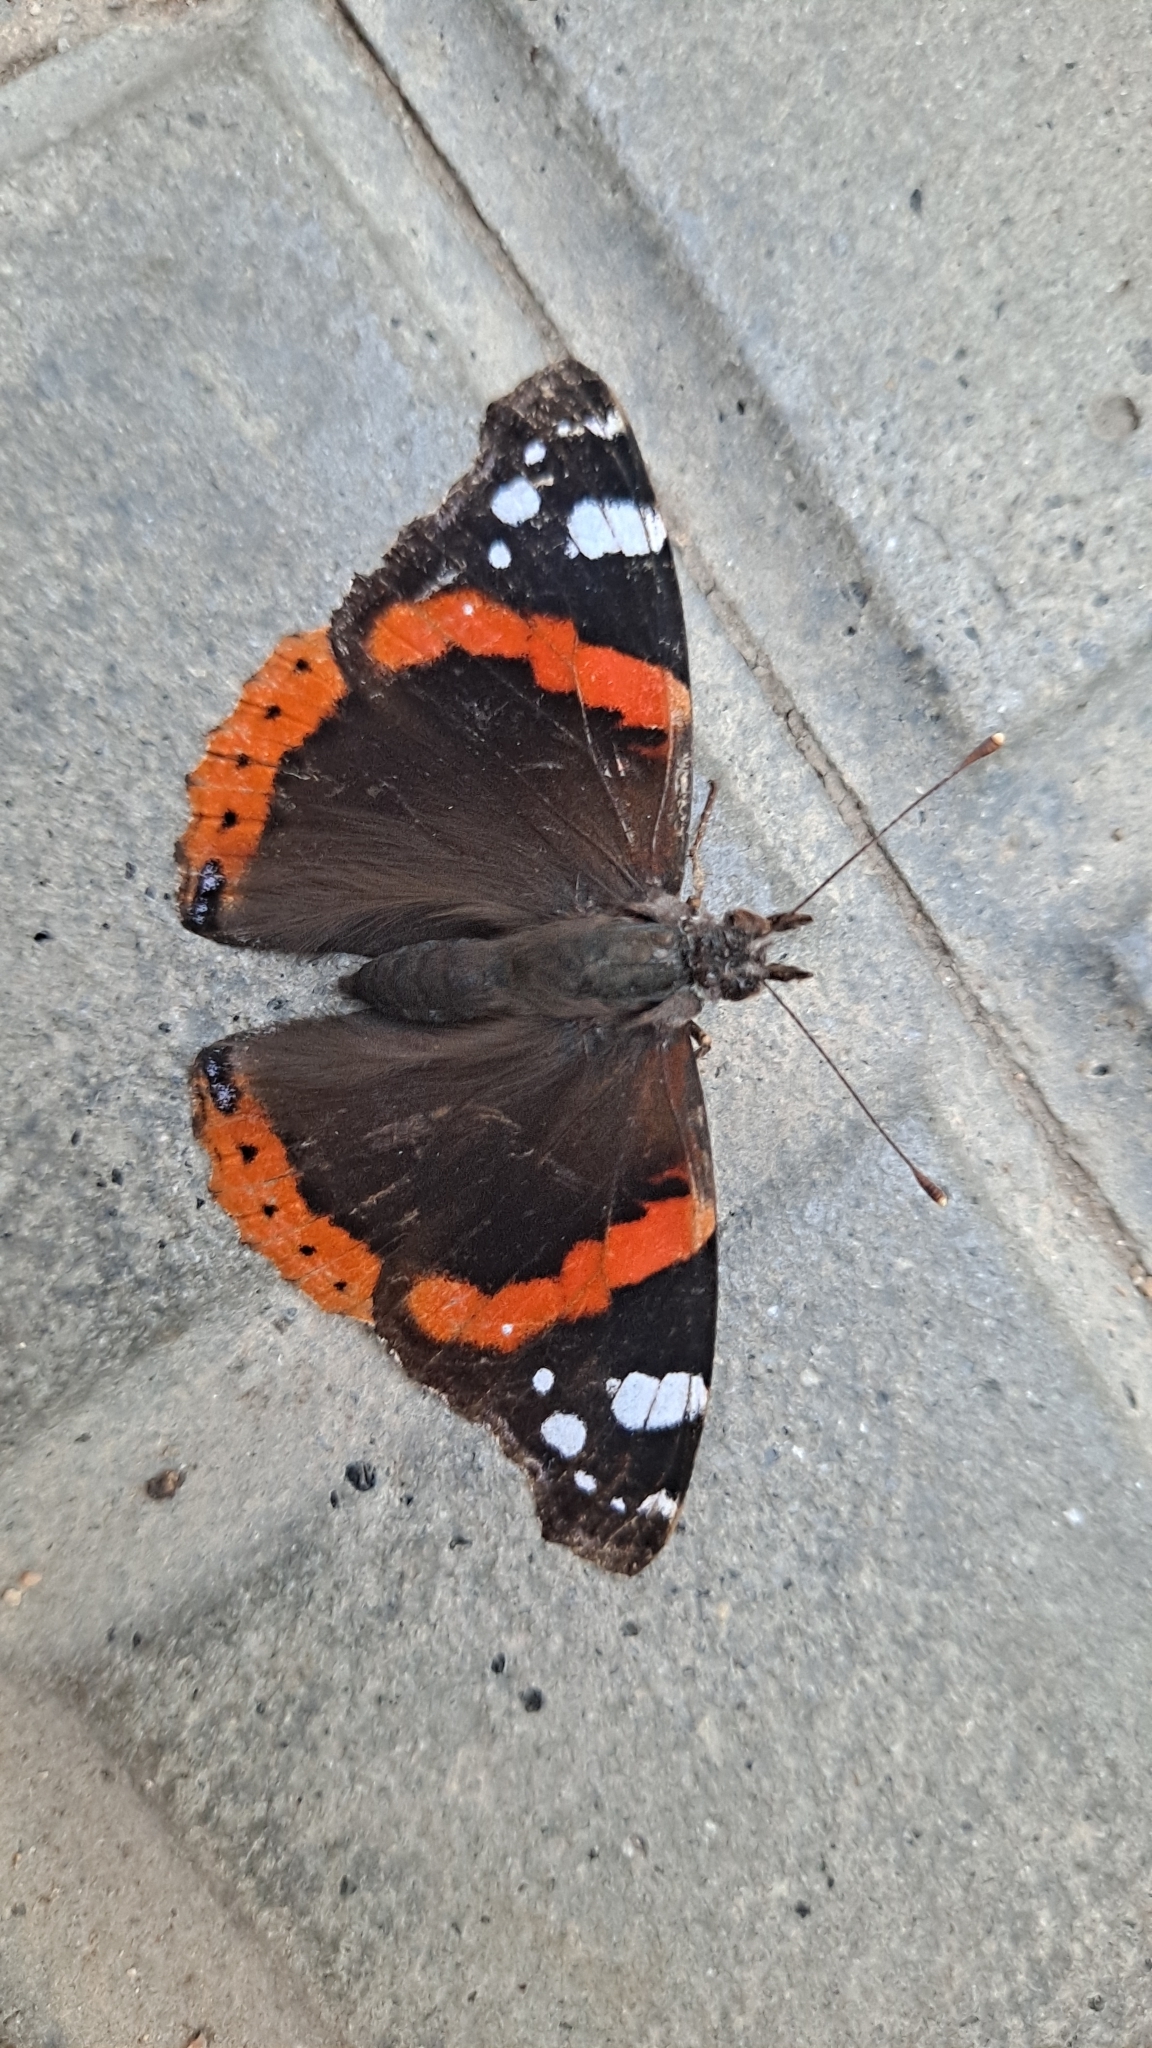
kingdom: Animalia
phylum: Arthropoda
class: Insecta
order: Lepidoptera
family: Nymphalidae
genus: Vanessa
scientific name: Vanessa atalanta
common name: Red admiral
